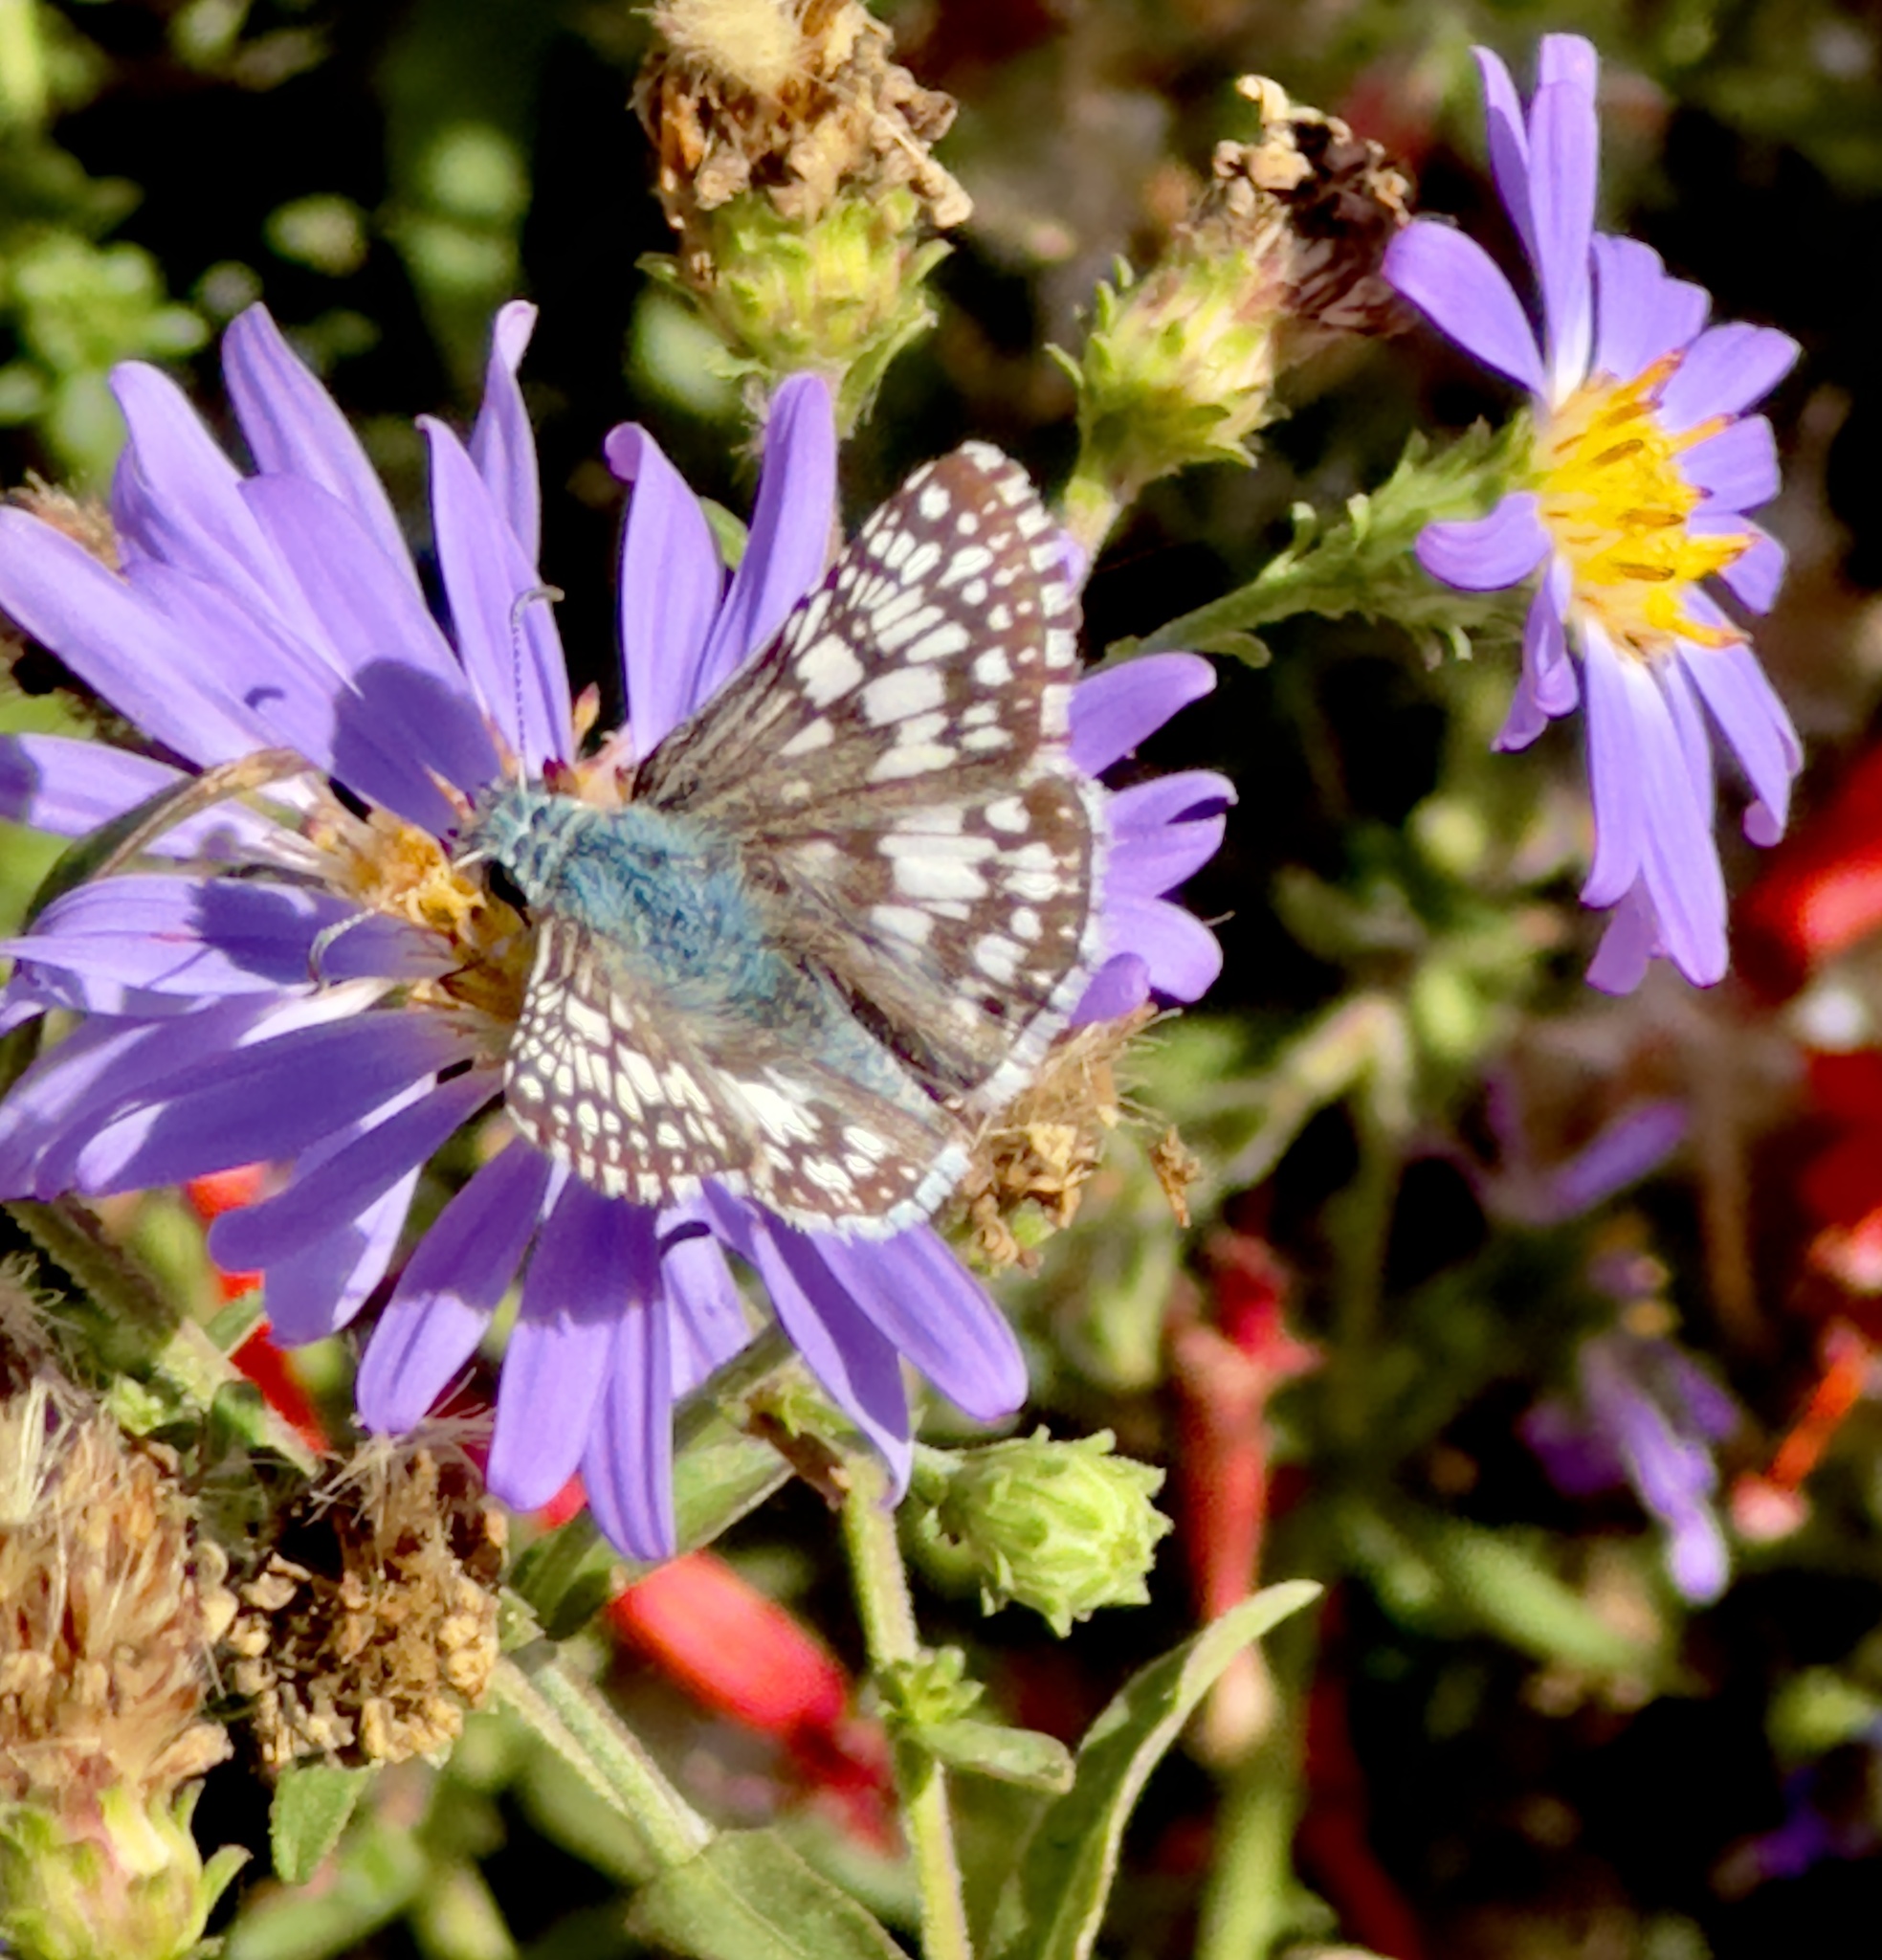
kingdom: Animalia
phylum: Arthropoda
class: Insecta
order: Lepidoptera
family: Hesperiidae
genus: Burnsius
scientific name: Burnsius communis
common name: Common checkered-skipper
